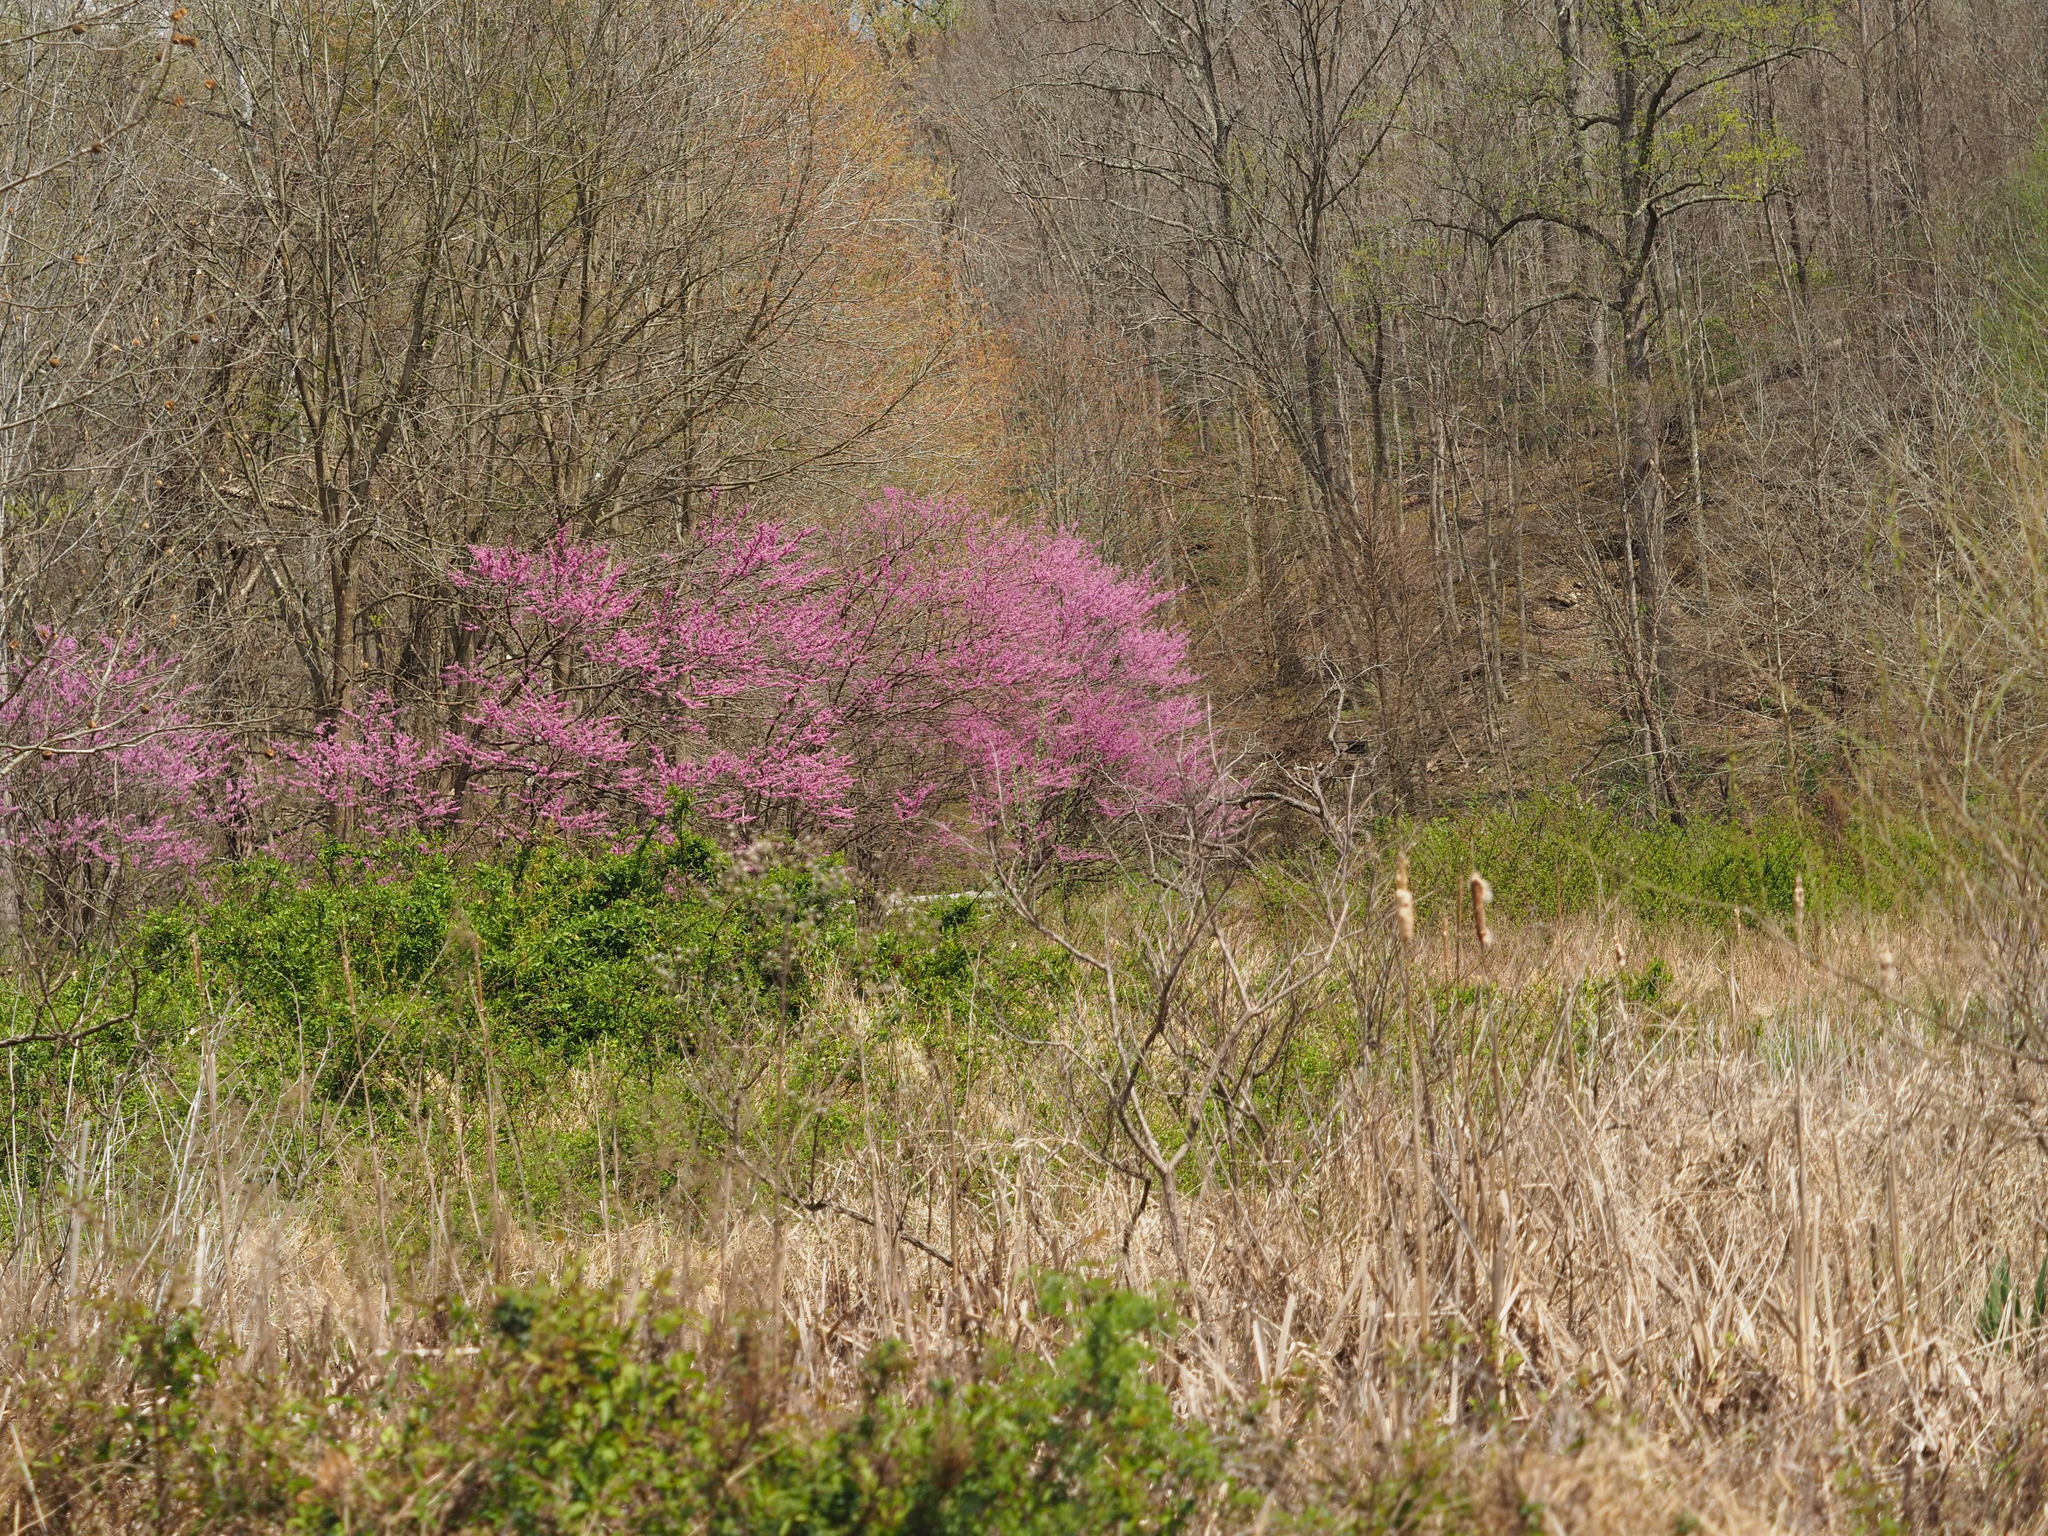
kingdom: Plantae
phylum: Tracheophyta
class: Magnoliopsida
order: Fabales
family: Fabaceae
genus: Cercis
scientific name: Cercis canadensis
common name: Eastern redbud
